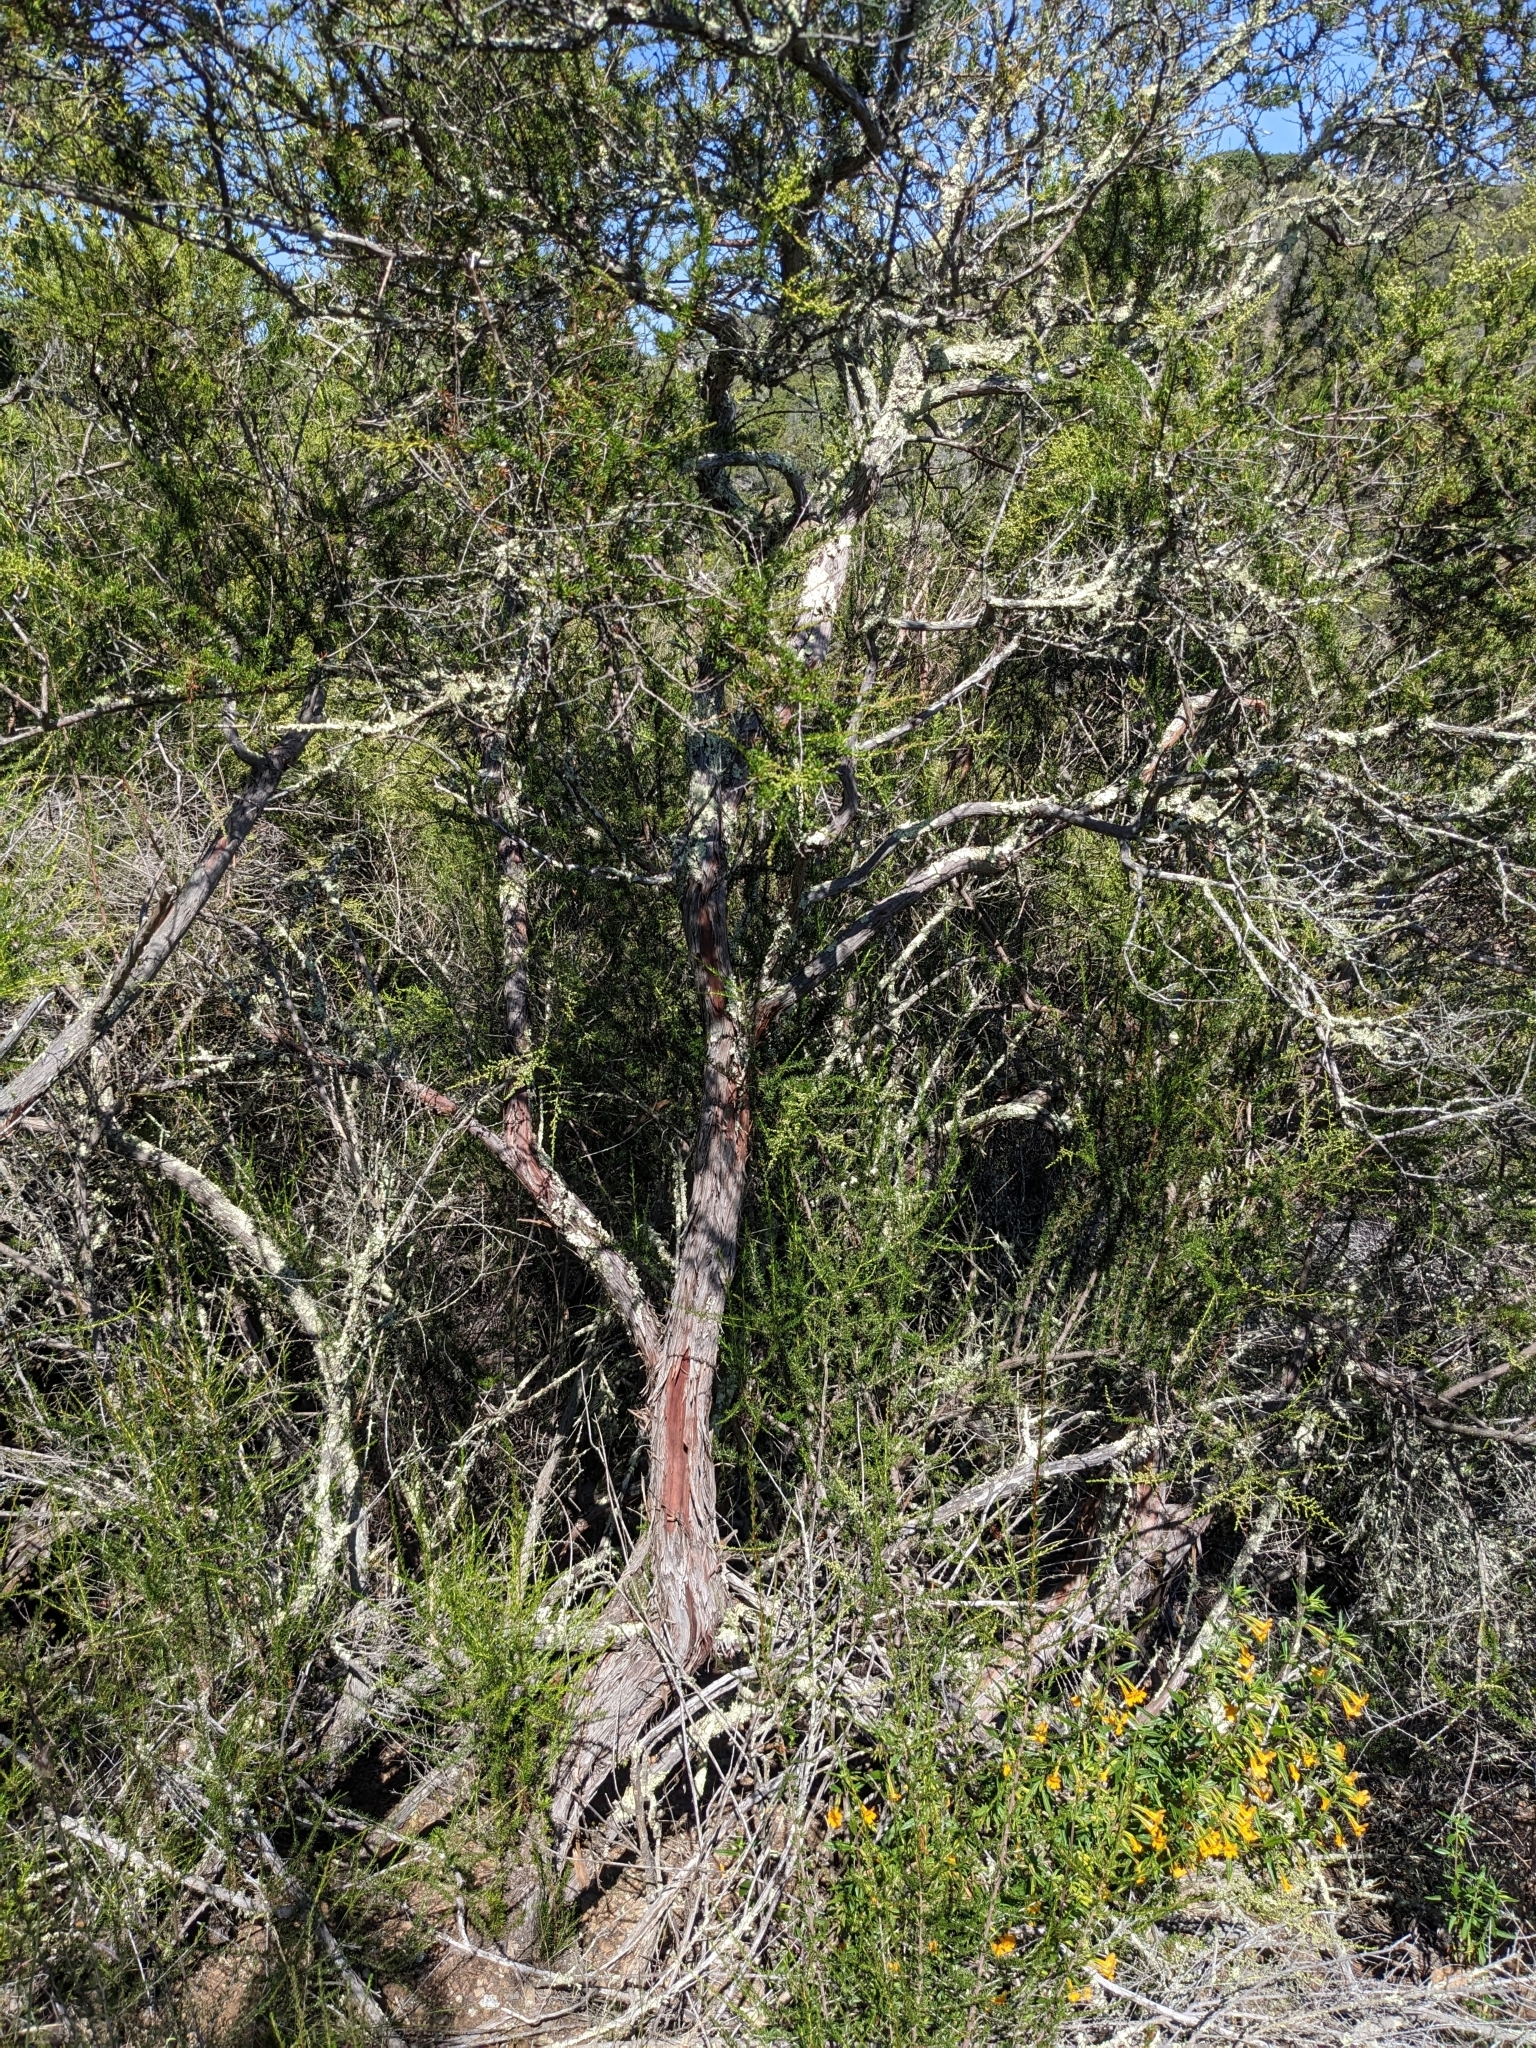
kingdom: Plantae
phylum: Tracheophyta
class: Magnoliopsida
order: Rosales
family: Rosaceae
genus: Adenostoma
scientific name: Adenostoma fasciculatum
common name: Chamise
